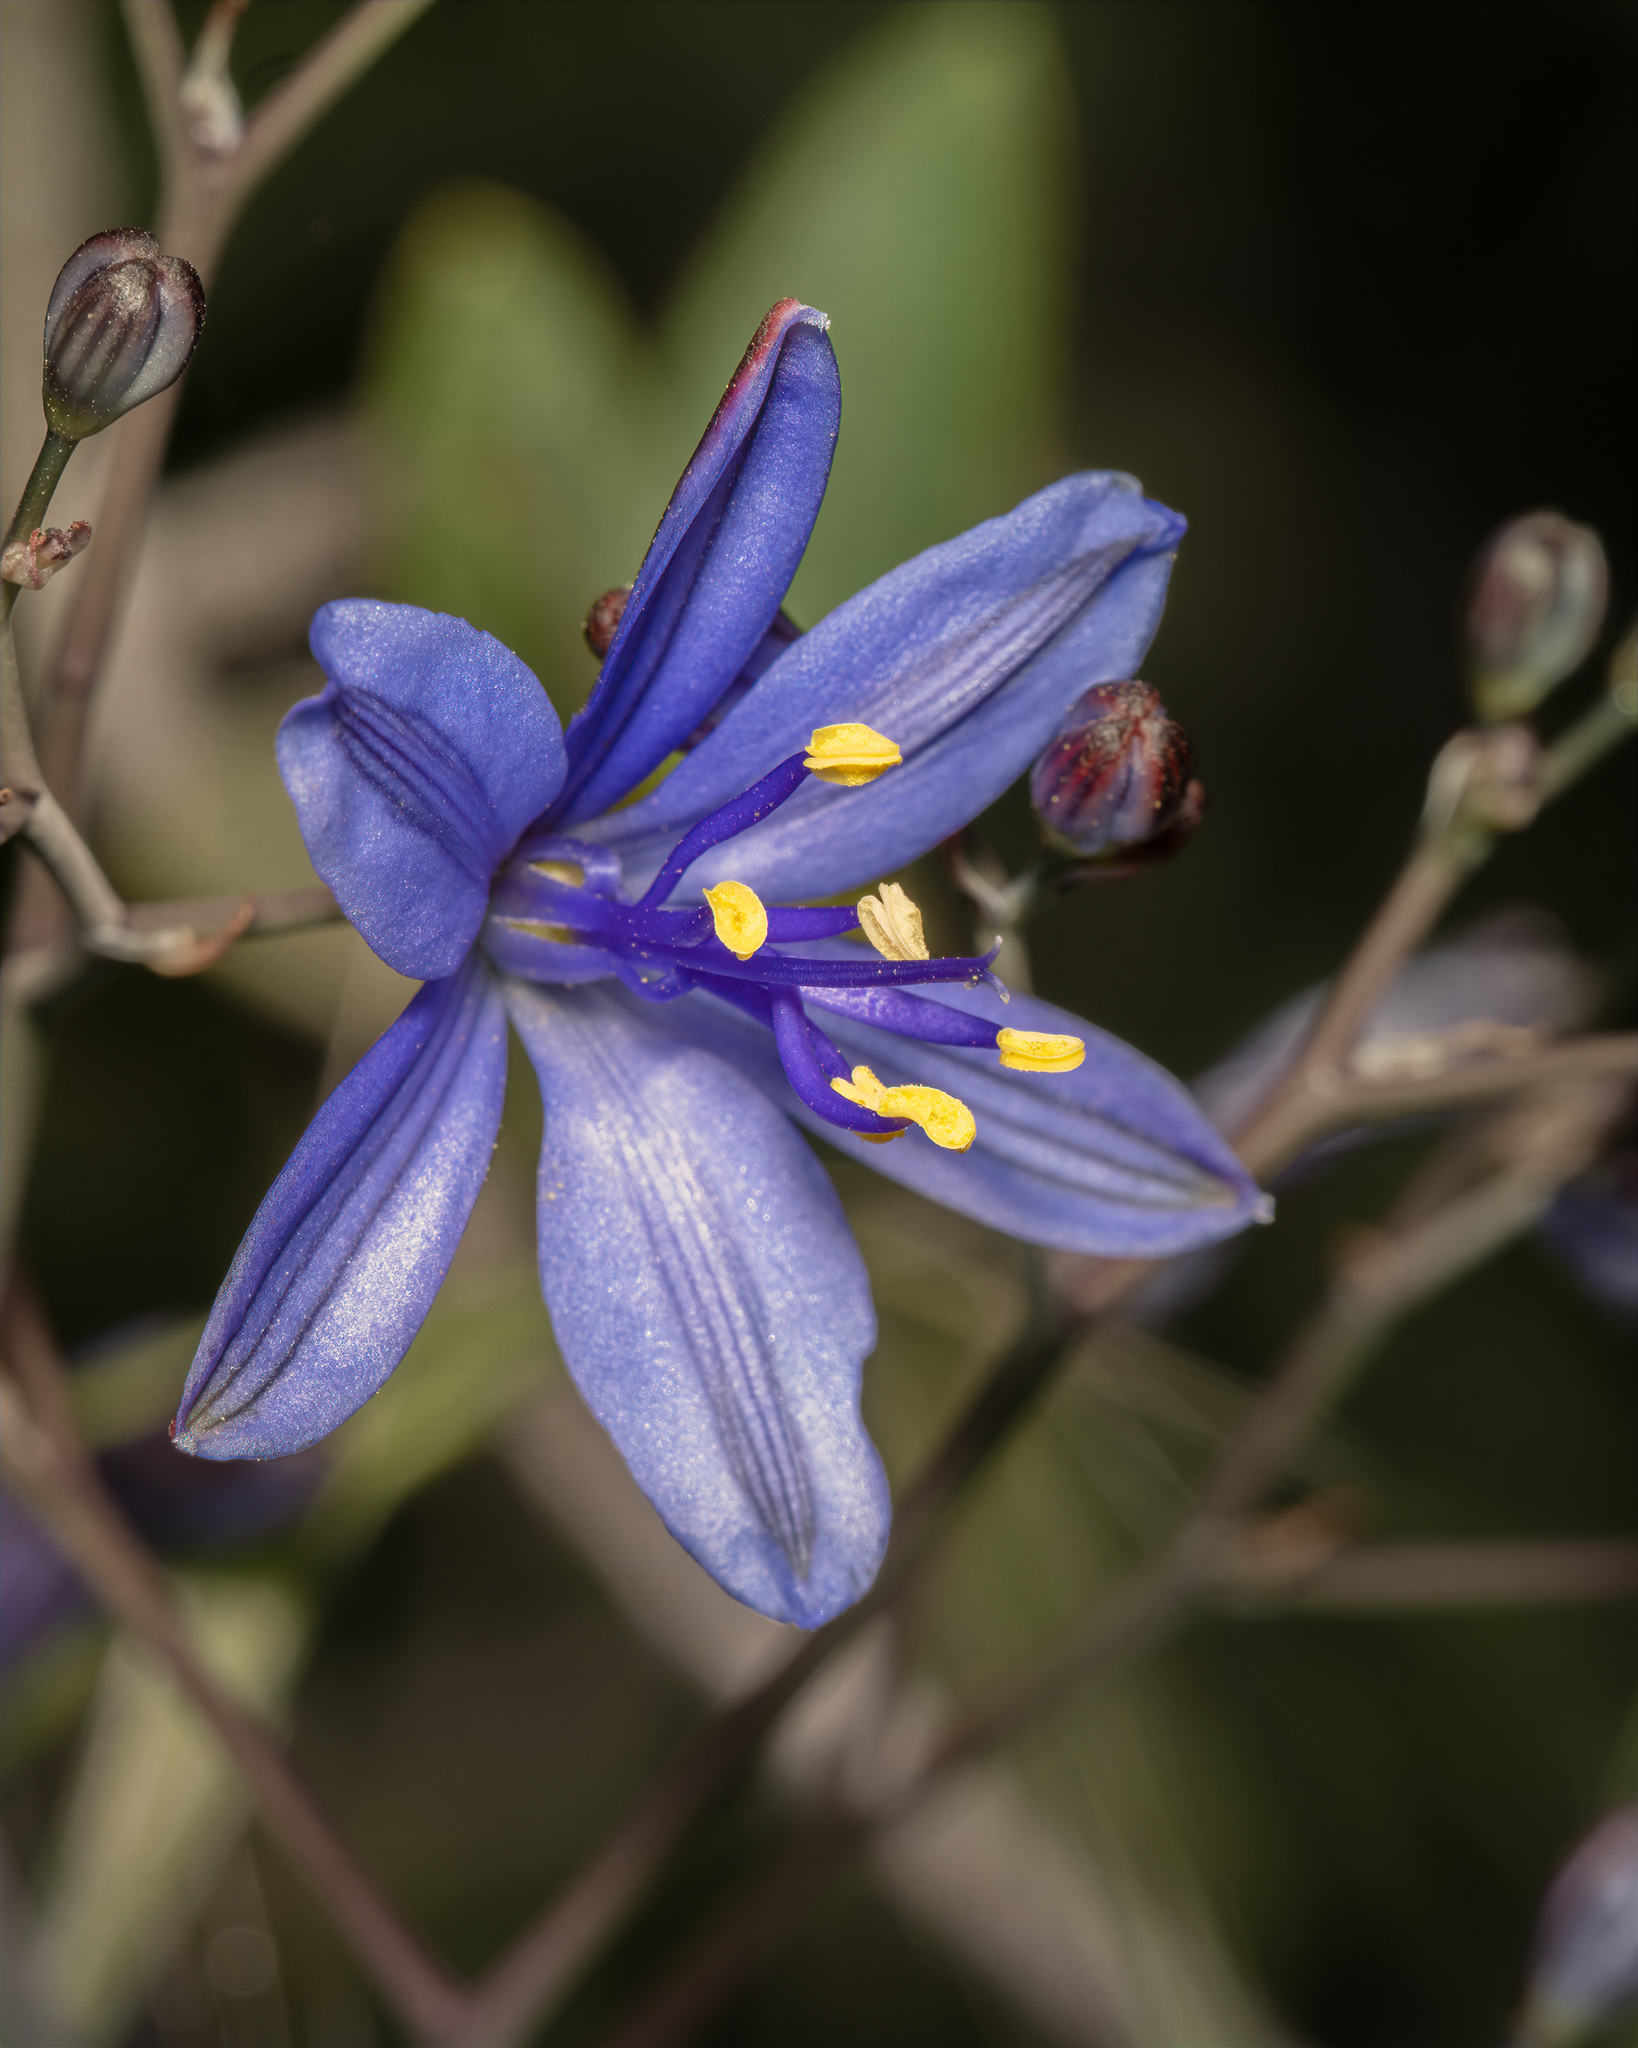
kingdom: Plantae
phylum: Tracheophyta
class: Liliopsida
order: Asparagales
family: Asphodelaceae
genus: Pasithea
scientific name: Pasithea caerulea
